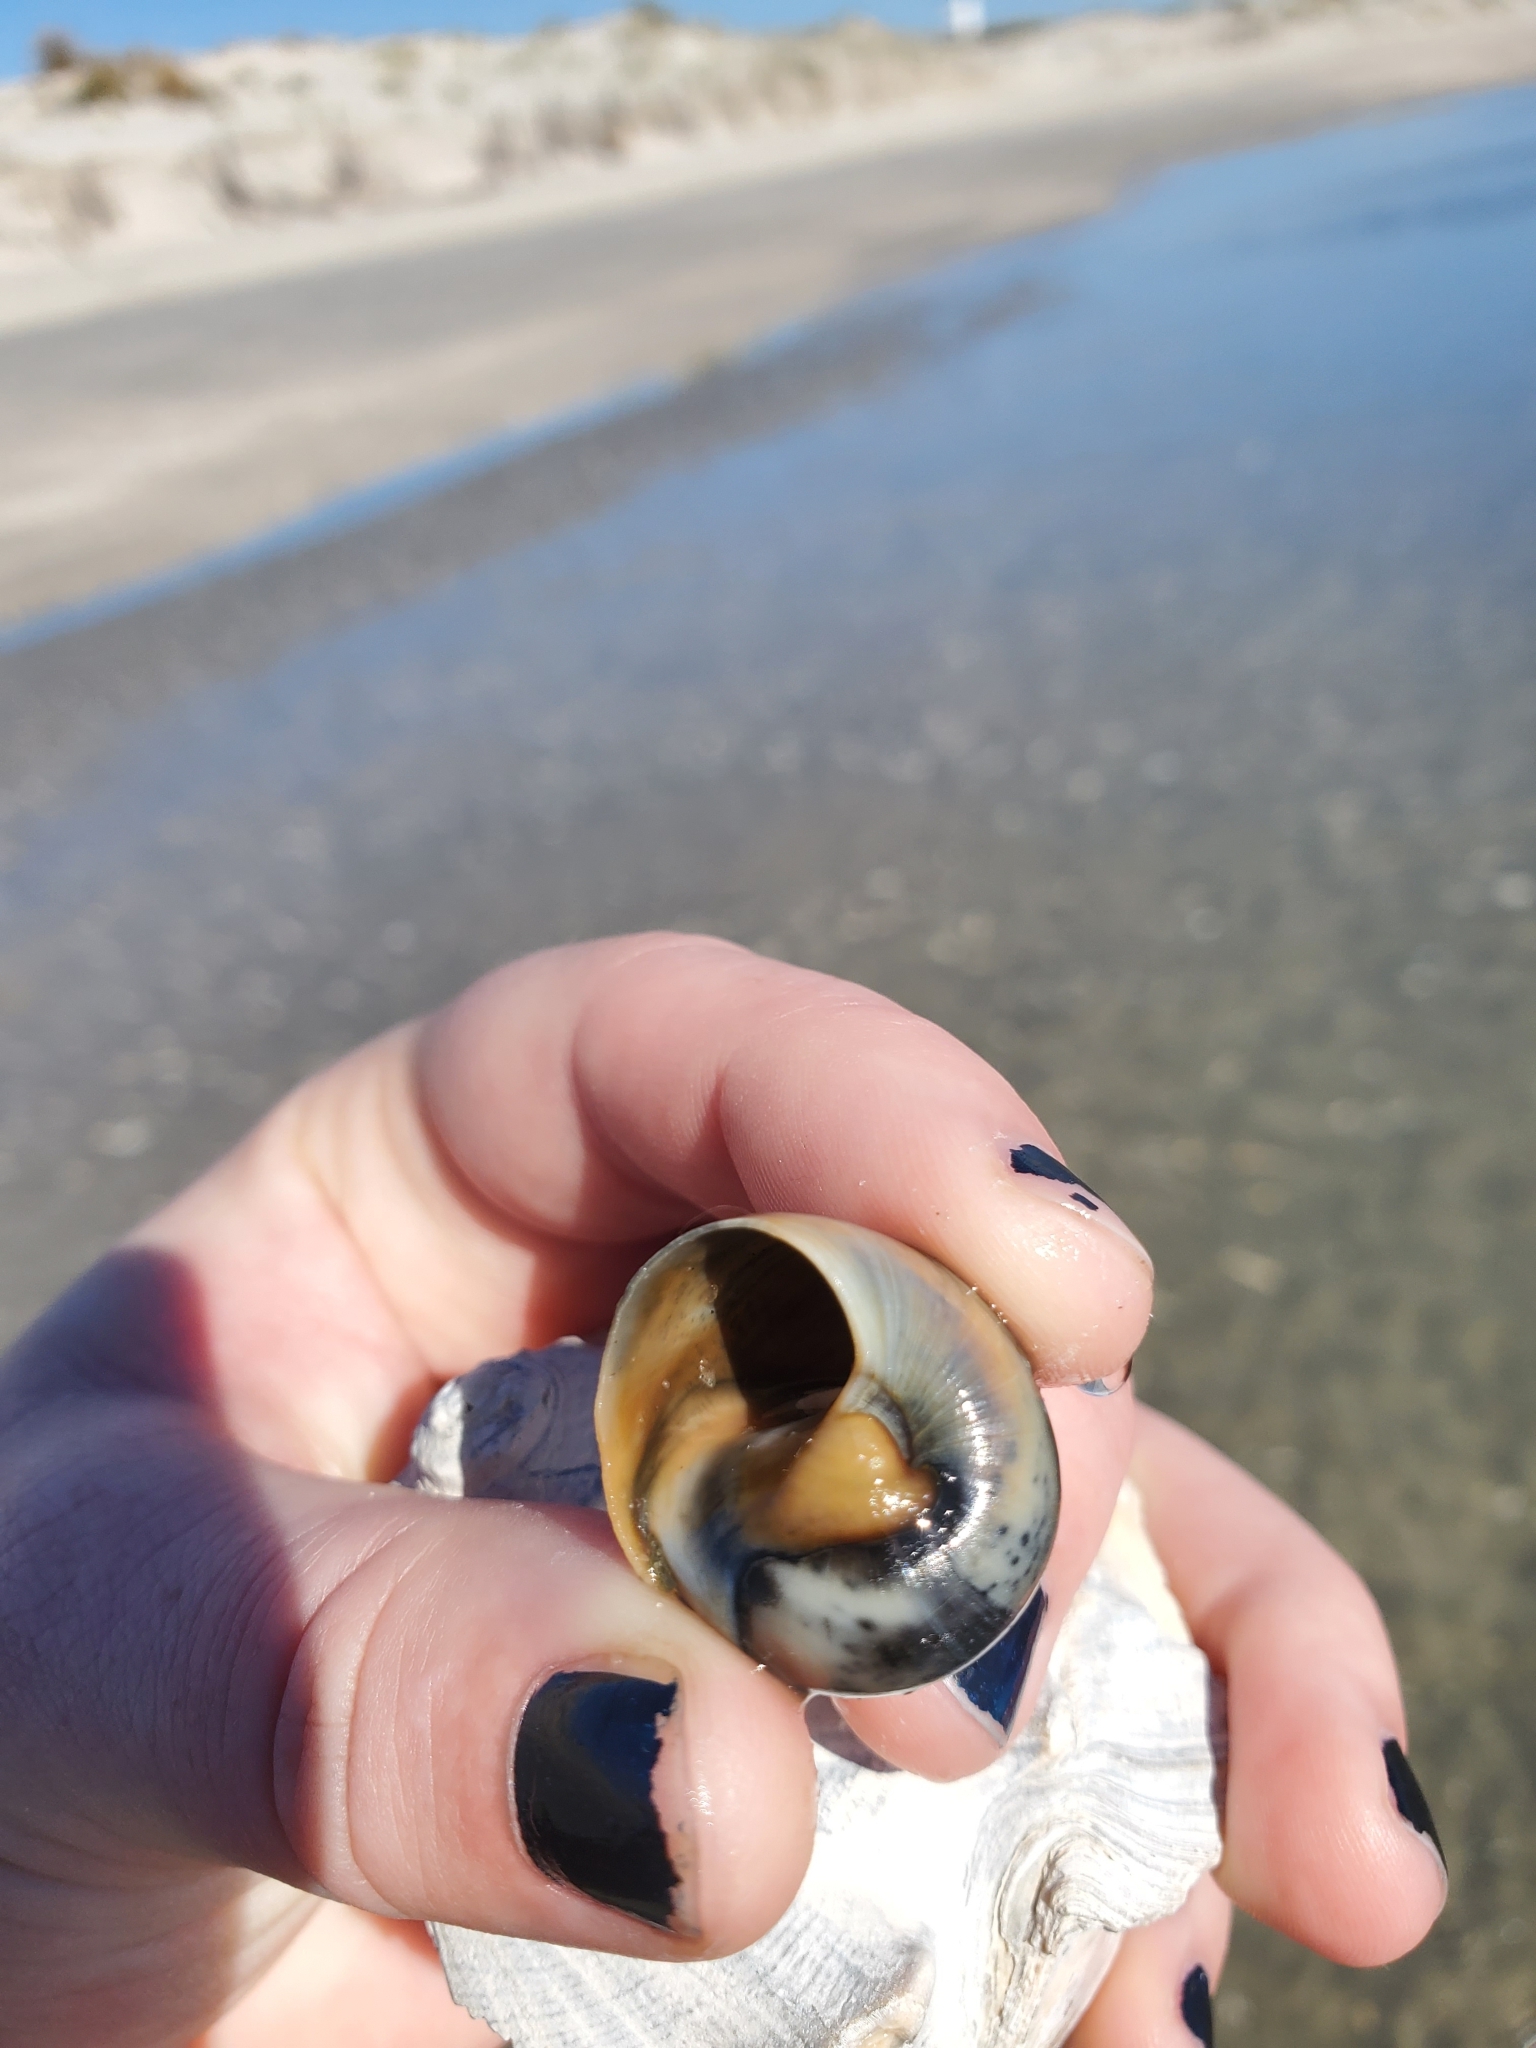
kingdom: Animalia
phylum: Mollusca
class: Gastropoda
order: Littorinimorpha
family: Naticidae
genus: Neverita
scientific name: Neverita duplicata
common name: Lobed moonsnail
